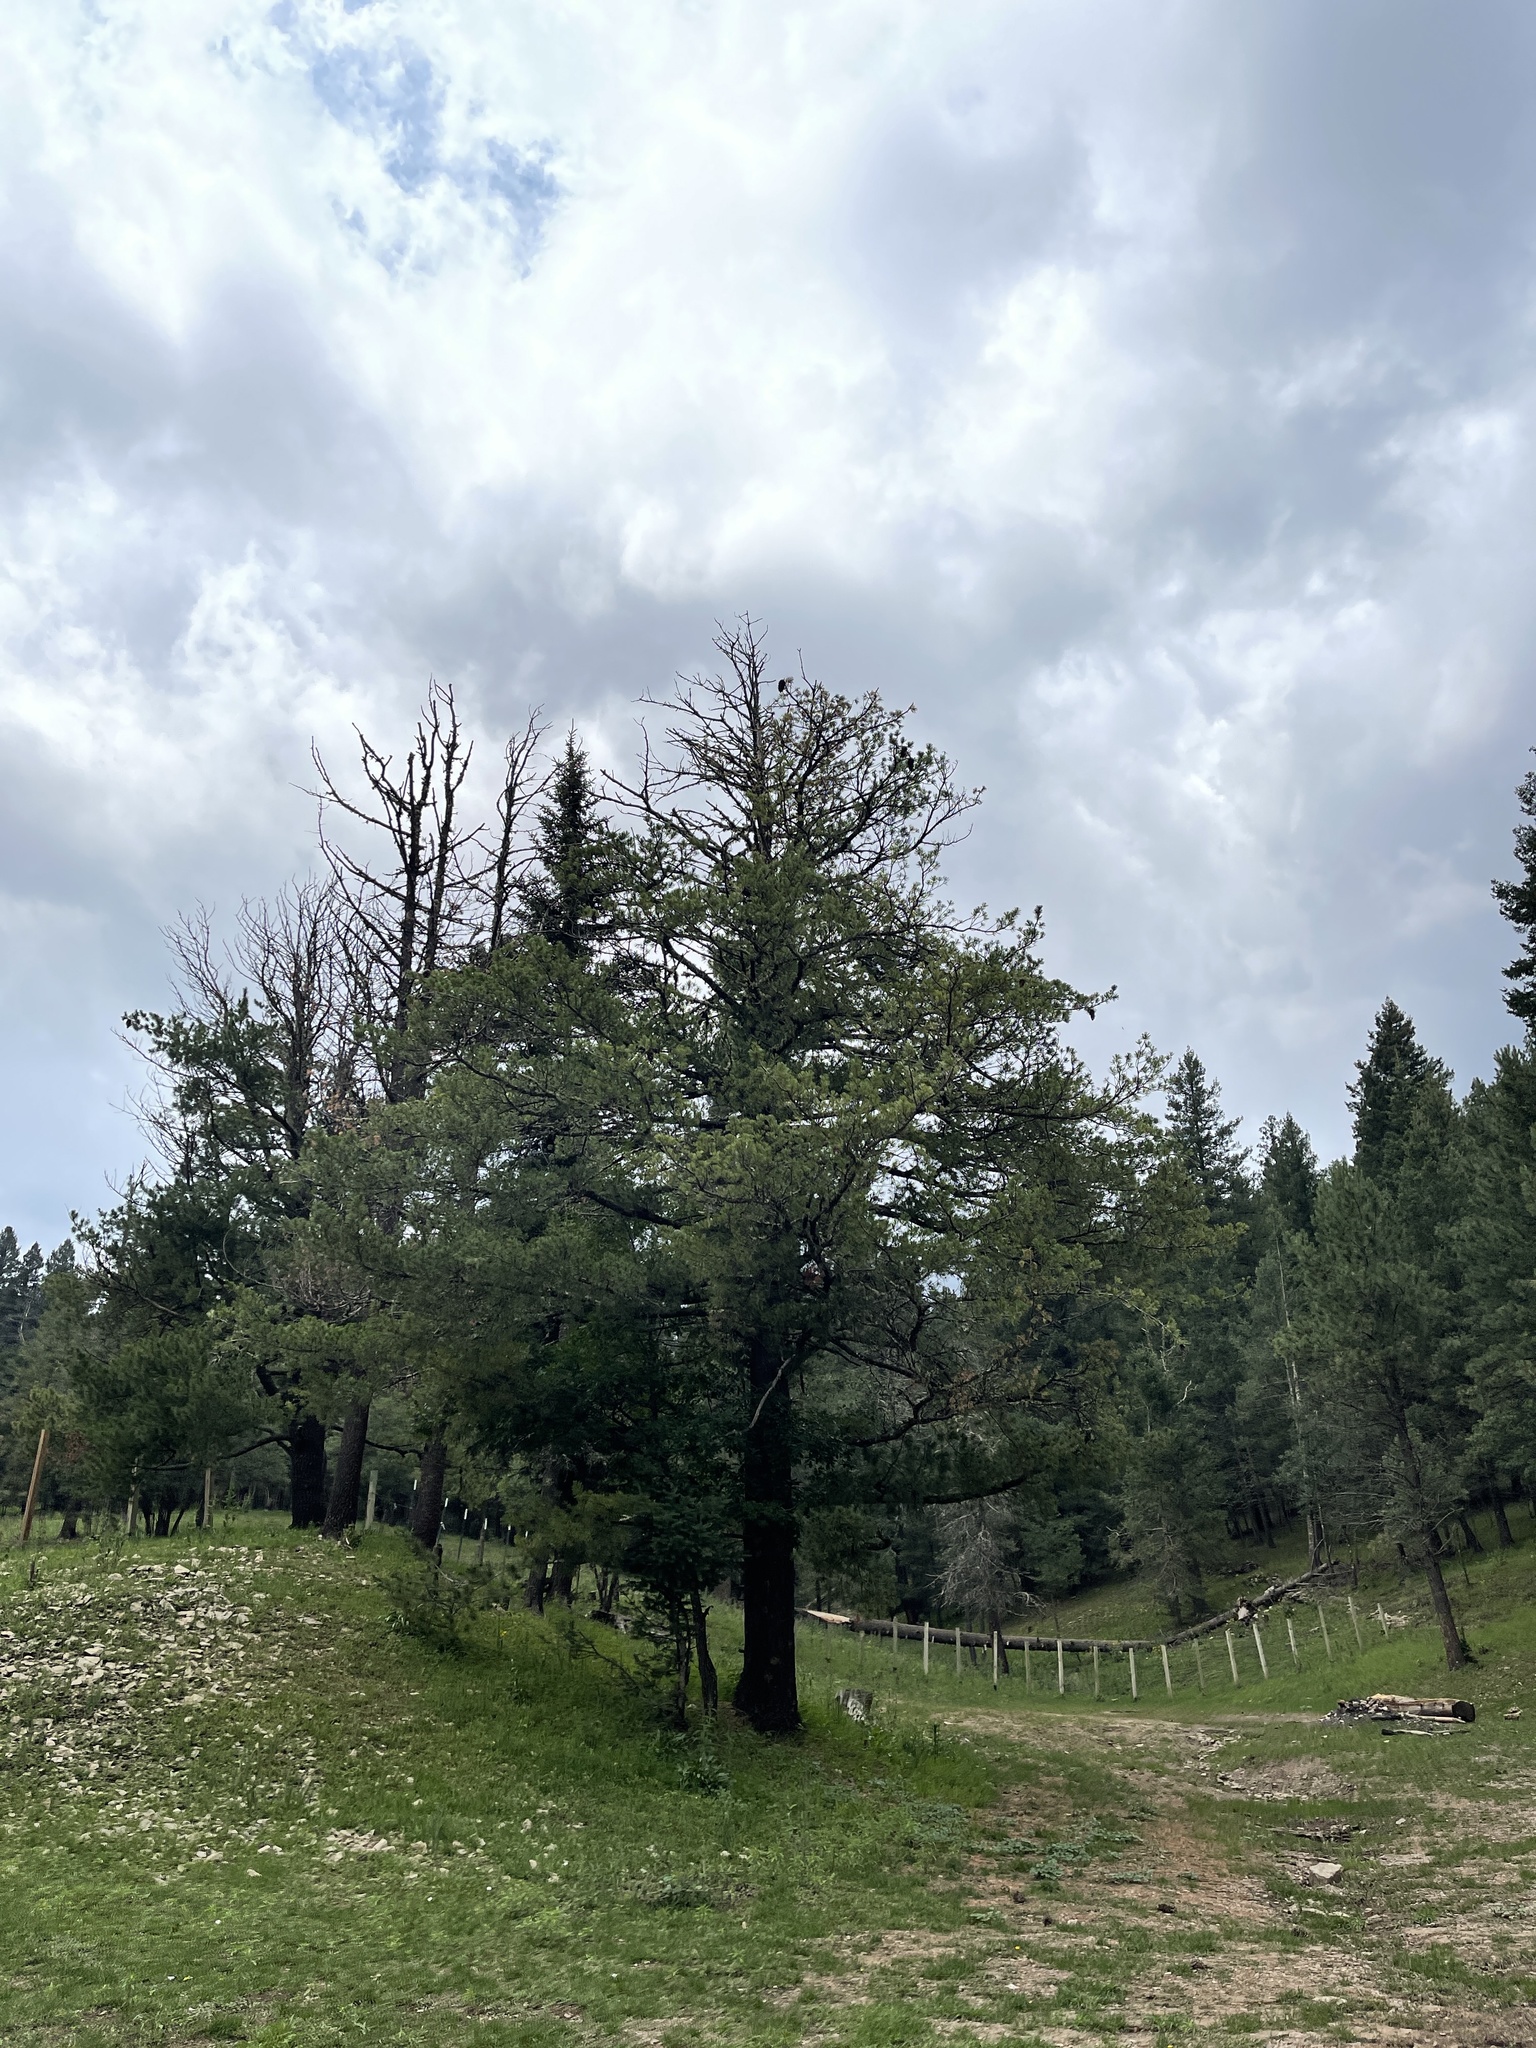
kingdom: Plantae
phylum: Tracheophyta
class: Pinopsida
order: Pinales
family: Pinaceae
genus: Pinus
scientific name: Pinus strobiformis
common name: Southwestern white pine
